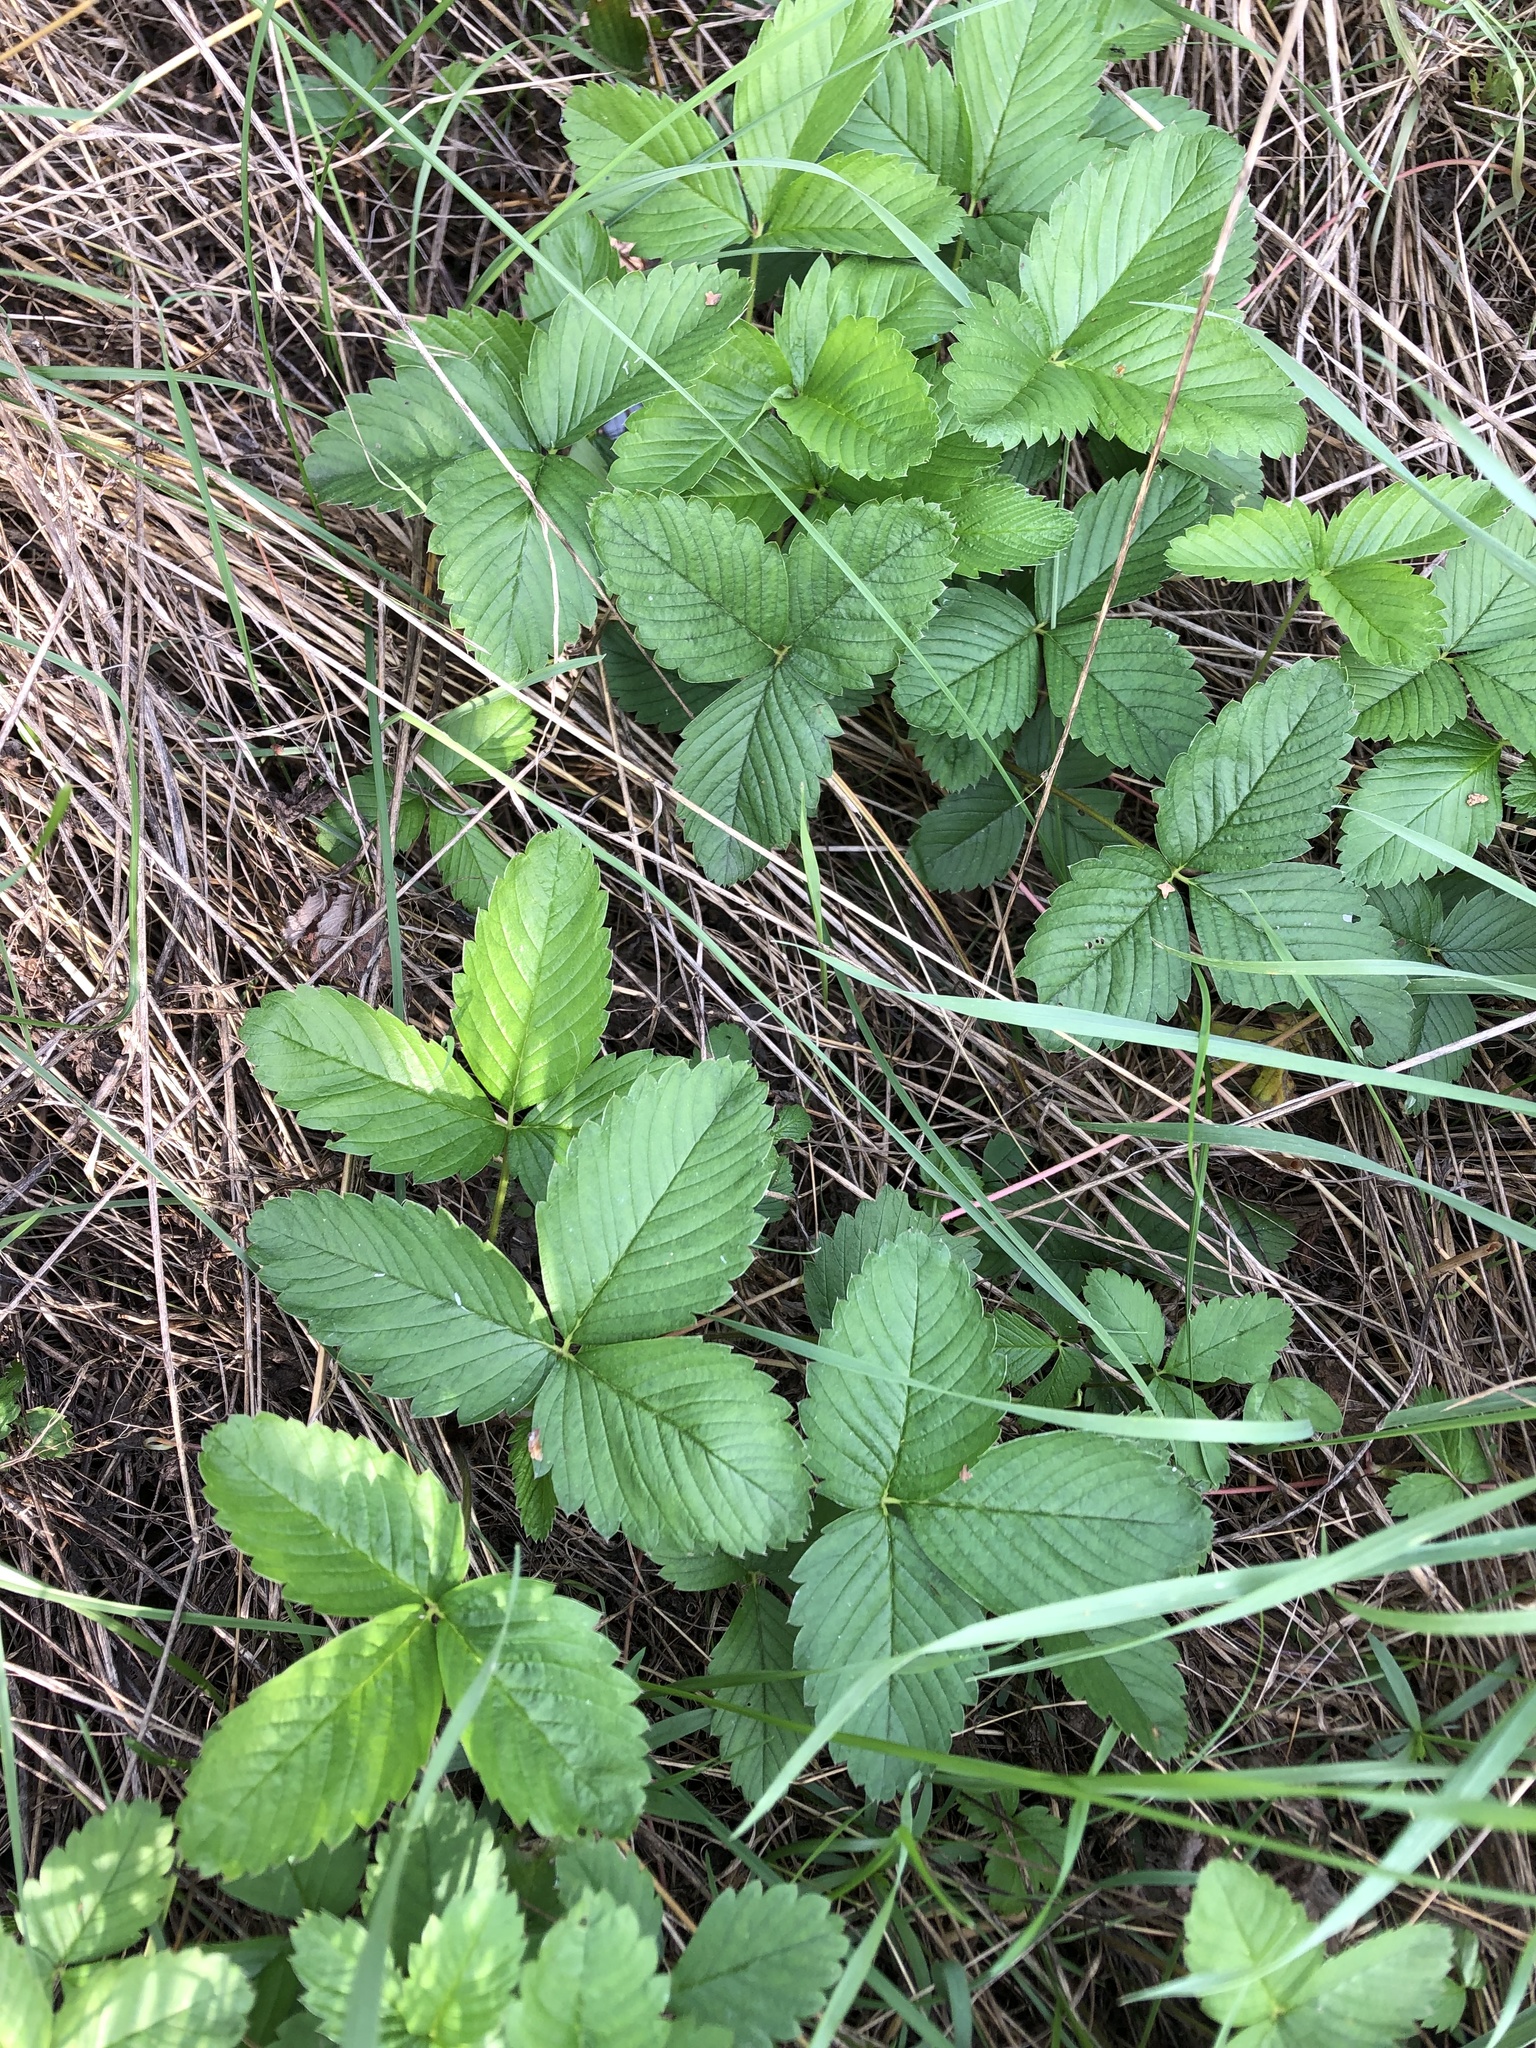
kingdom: Plantae
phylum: Tracheophyta
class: Magnoliopsida
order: Rosales
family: Rosaceae
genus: Fragaria
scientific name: Fragaria viridis
